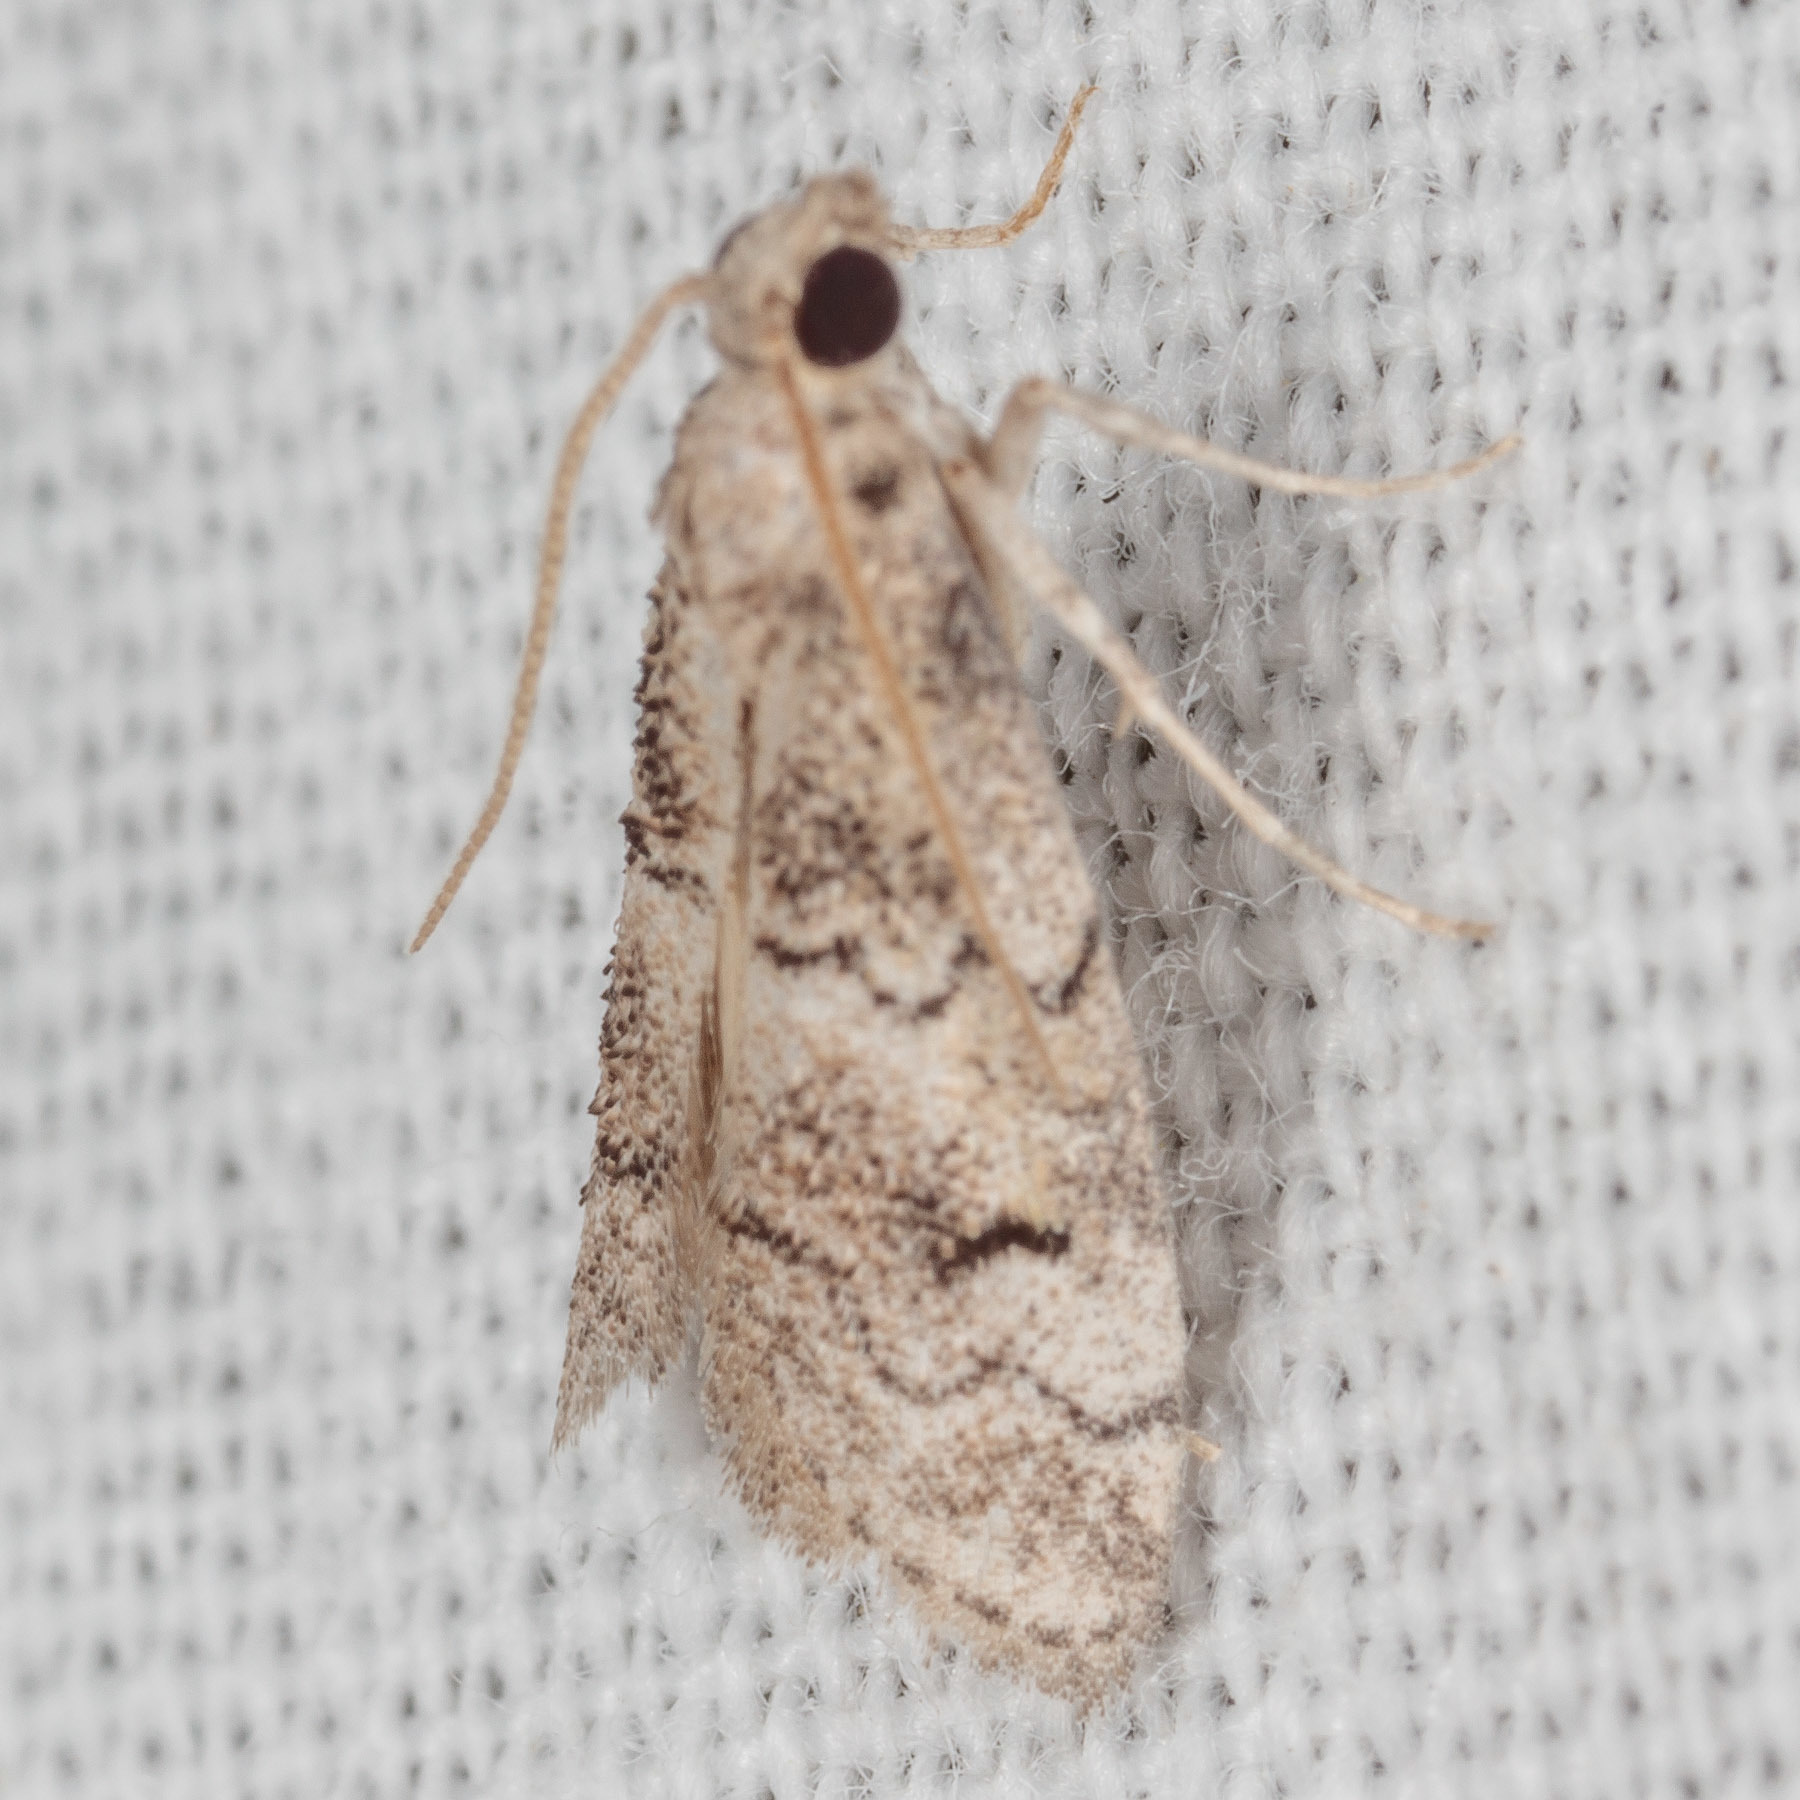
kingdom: Animalia
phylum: Arthropoda
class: Insecta
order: Lepidoptera
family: Pyralidae
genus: Cacotherapia
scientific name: Cacotherapia flexilinealis
